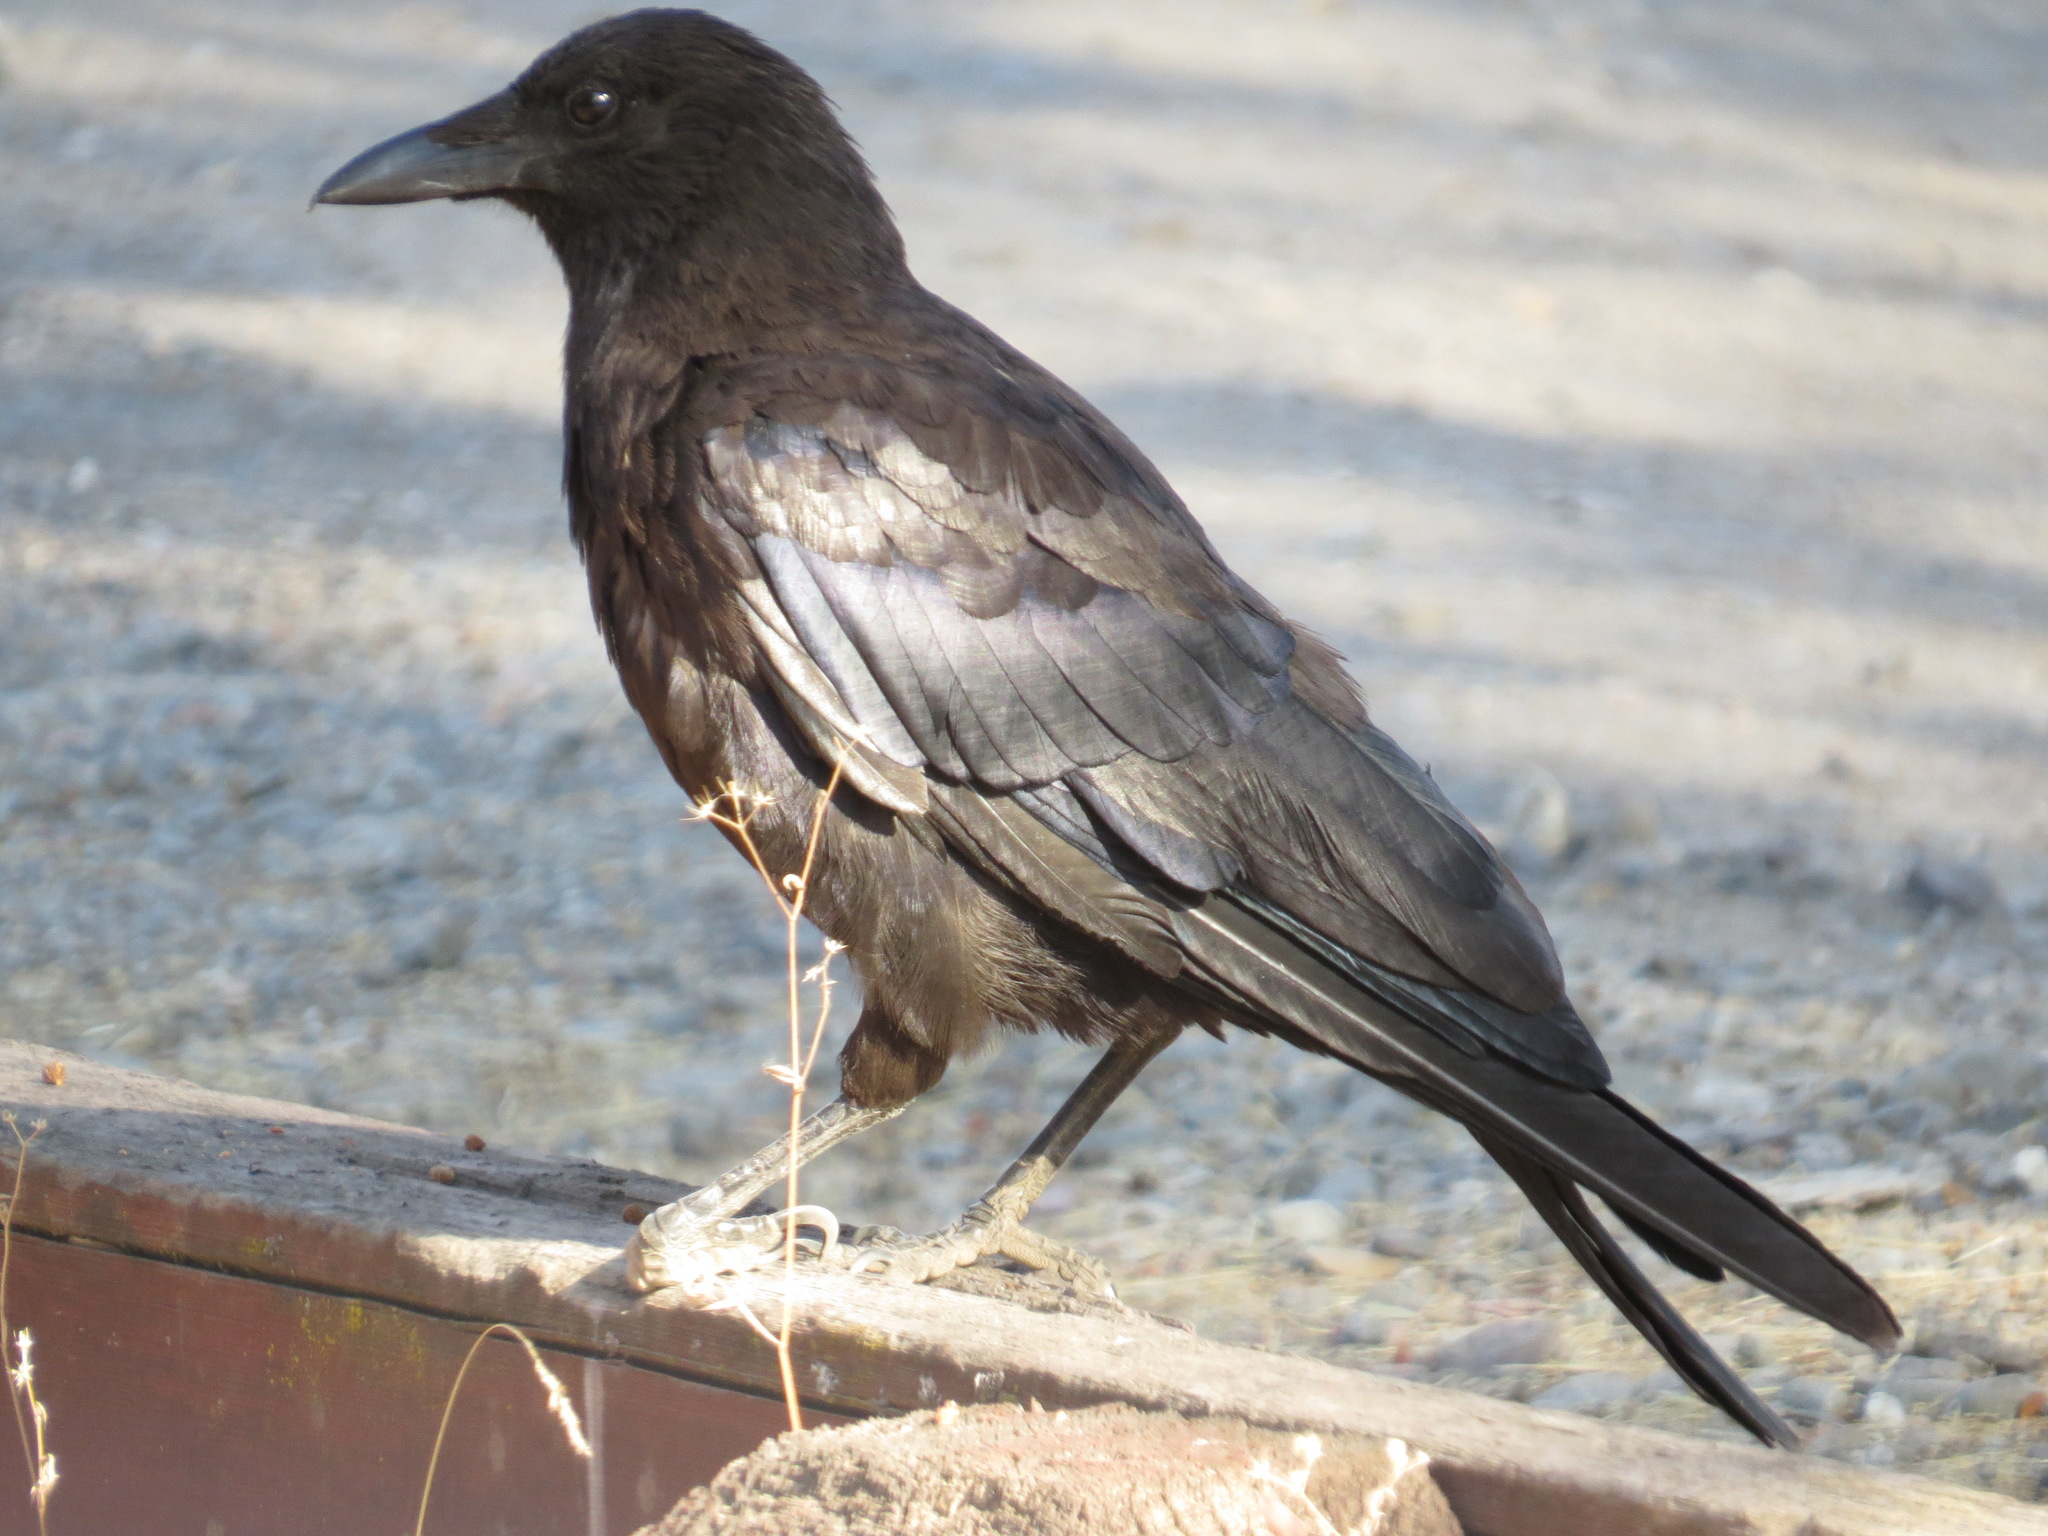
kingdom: Animalia
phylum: Chordata
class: Aves
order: Passeriformes
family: Corvidae
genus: Corvus
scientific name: Corvus brachyrhynchos
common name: American crow
